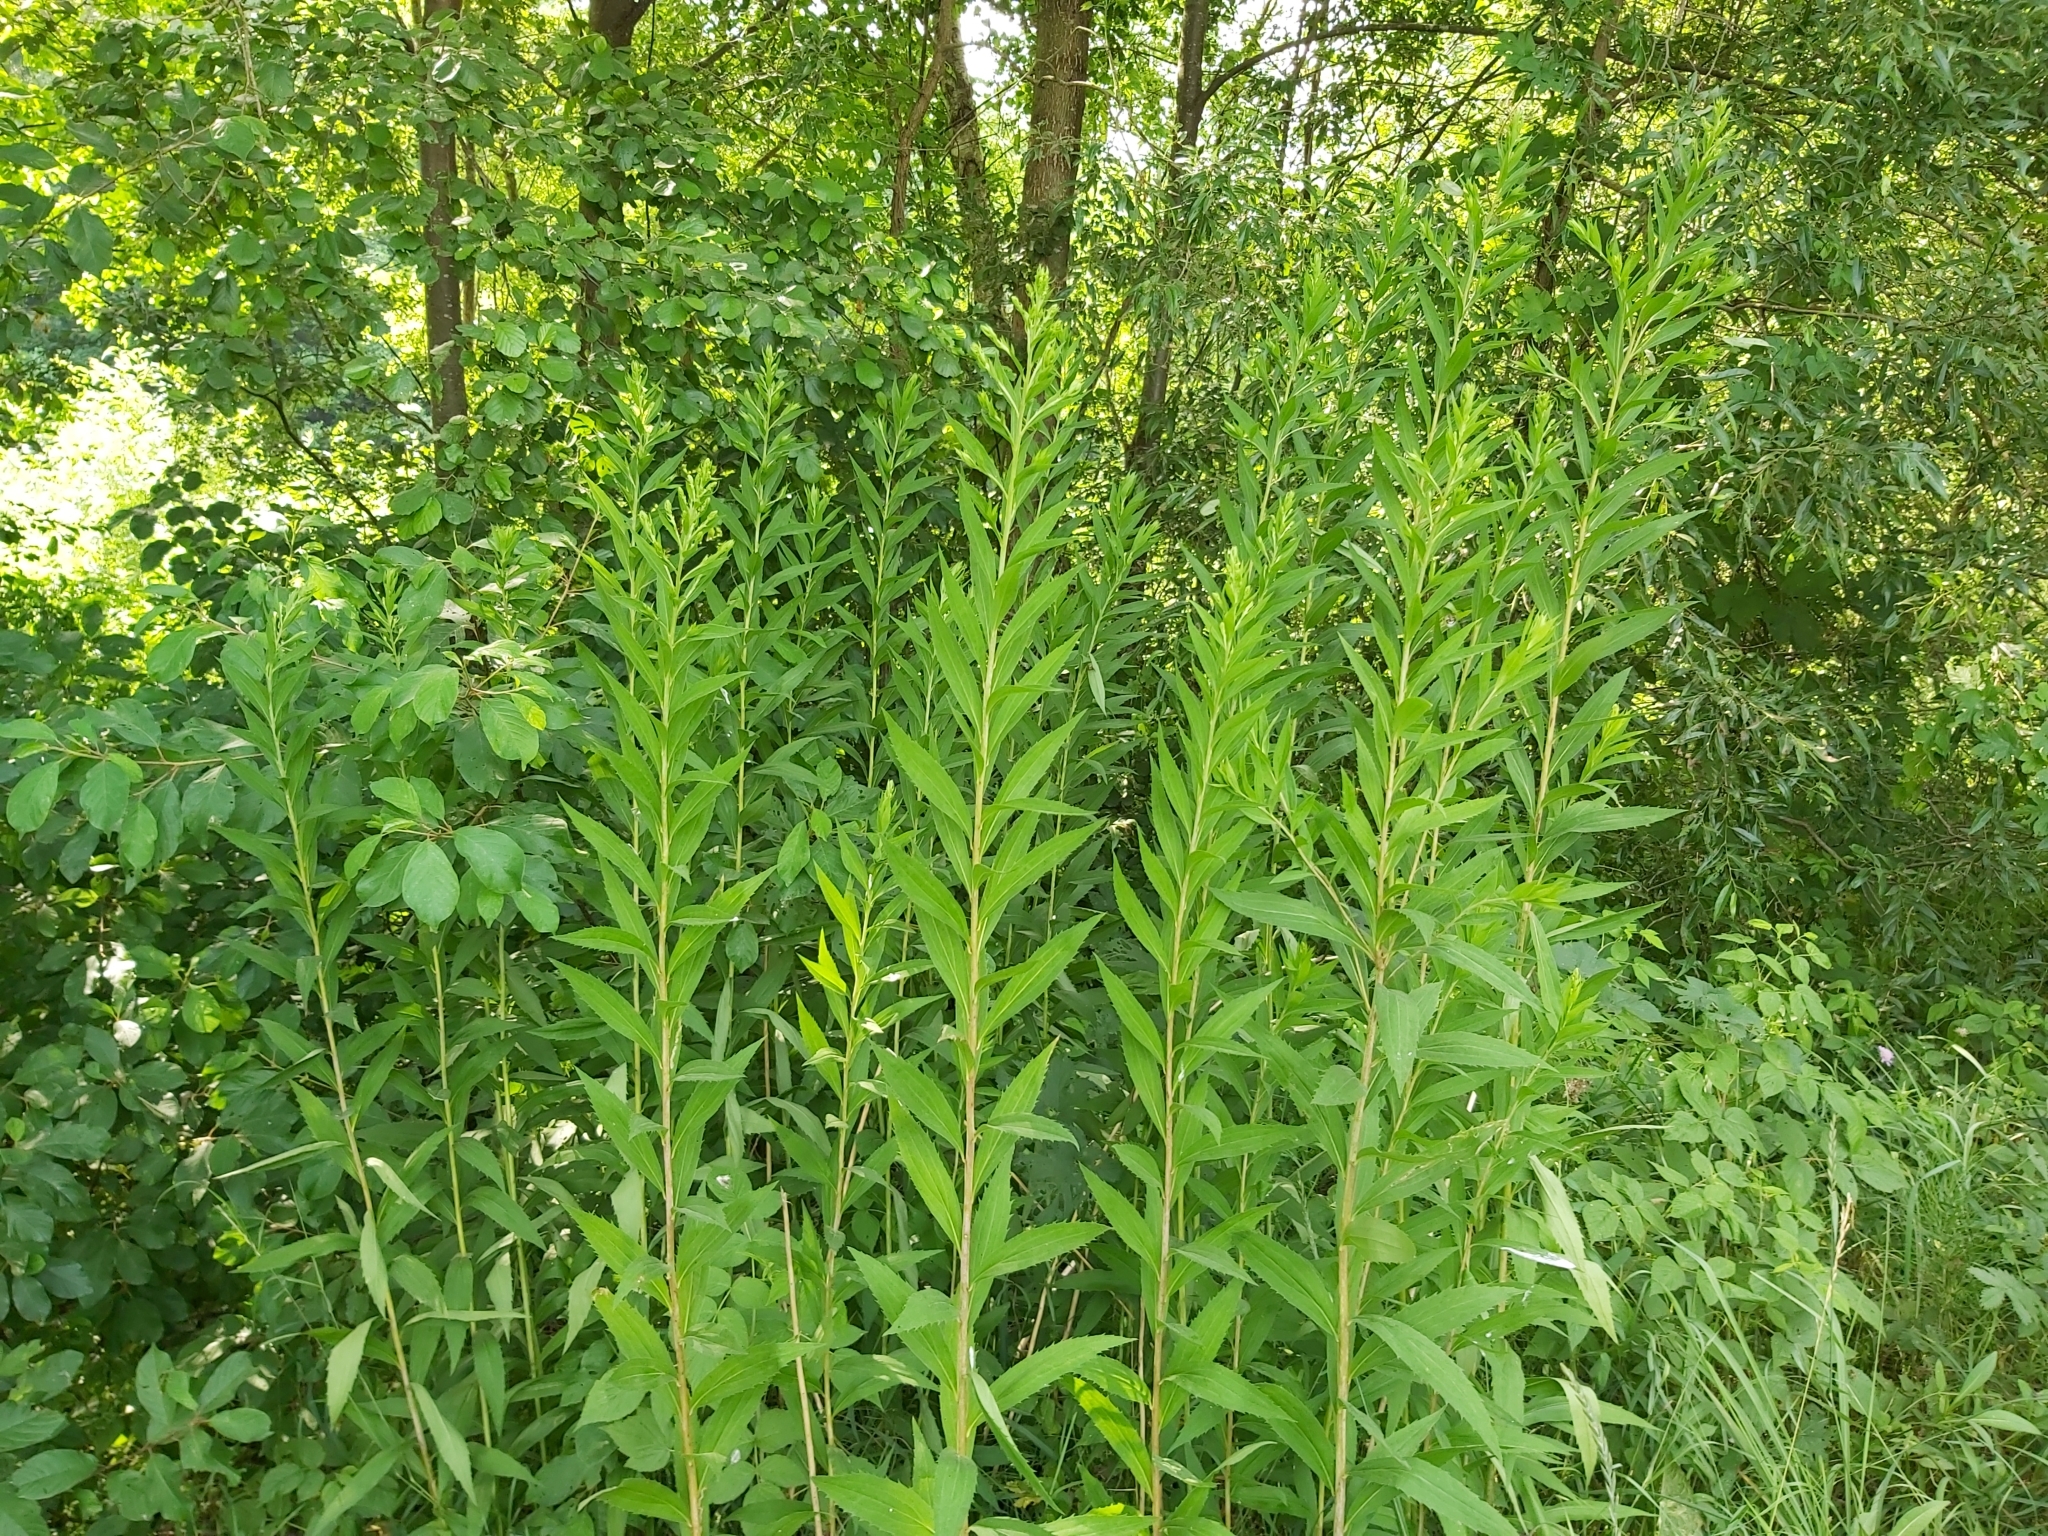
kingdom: Plantae
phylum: Tracheophyta
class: Magnoliopsida
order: Asterales
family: Asteraceae
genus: Solidago
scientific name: Solidago gigantea
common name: Giant goldenrod
